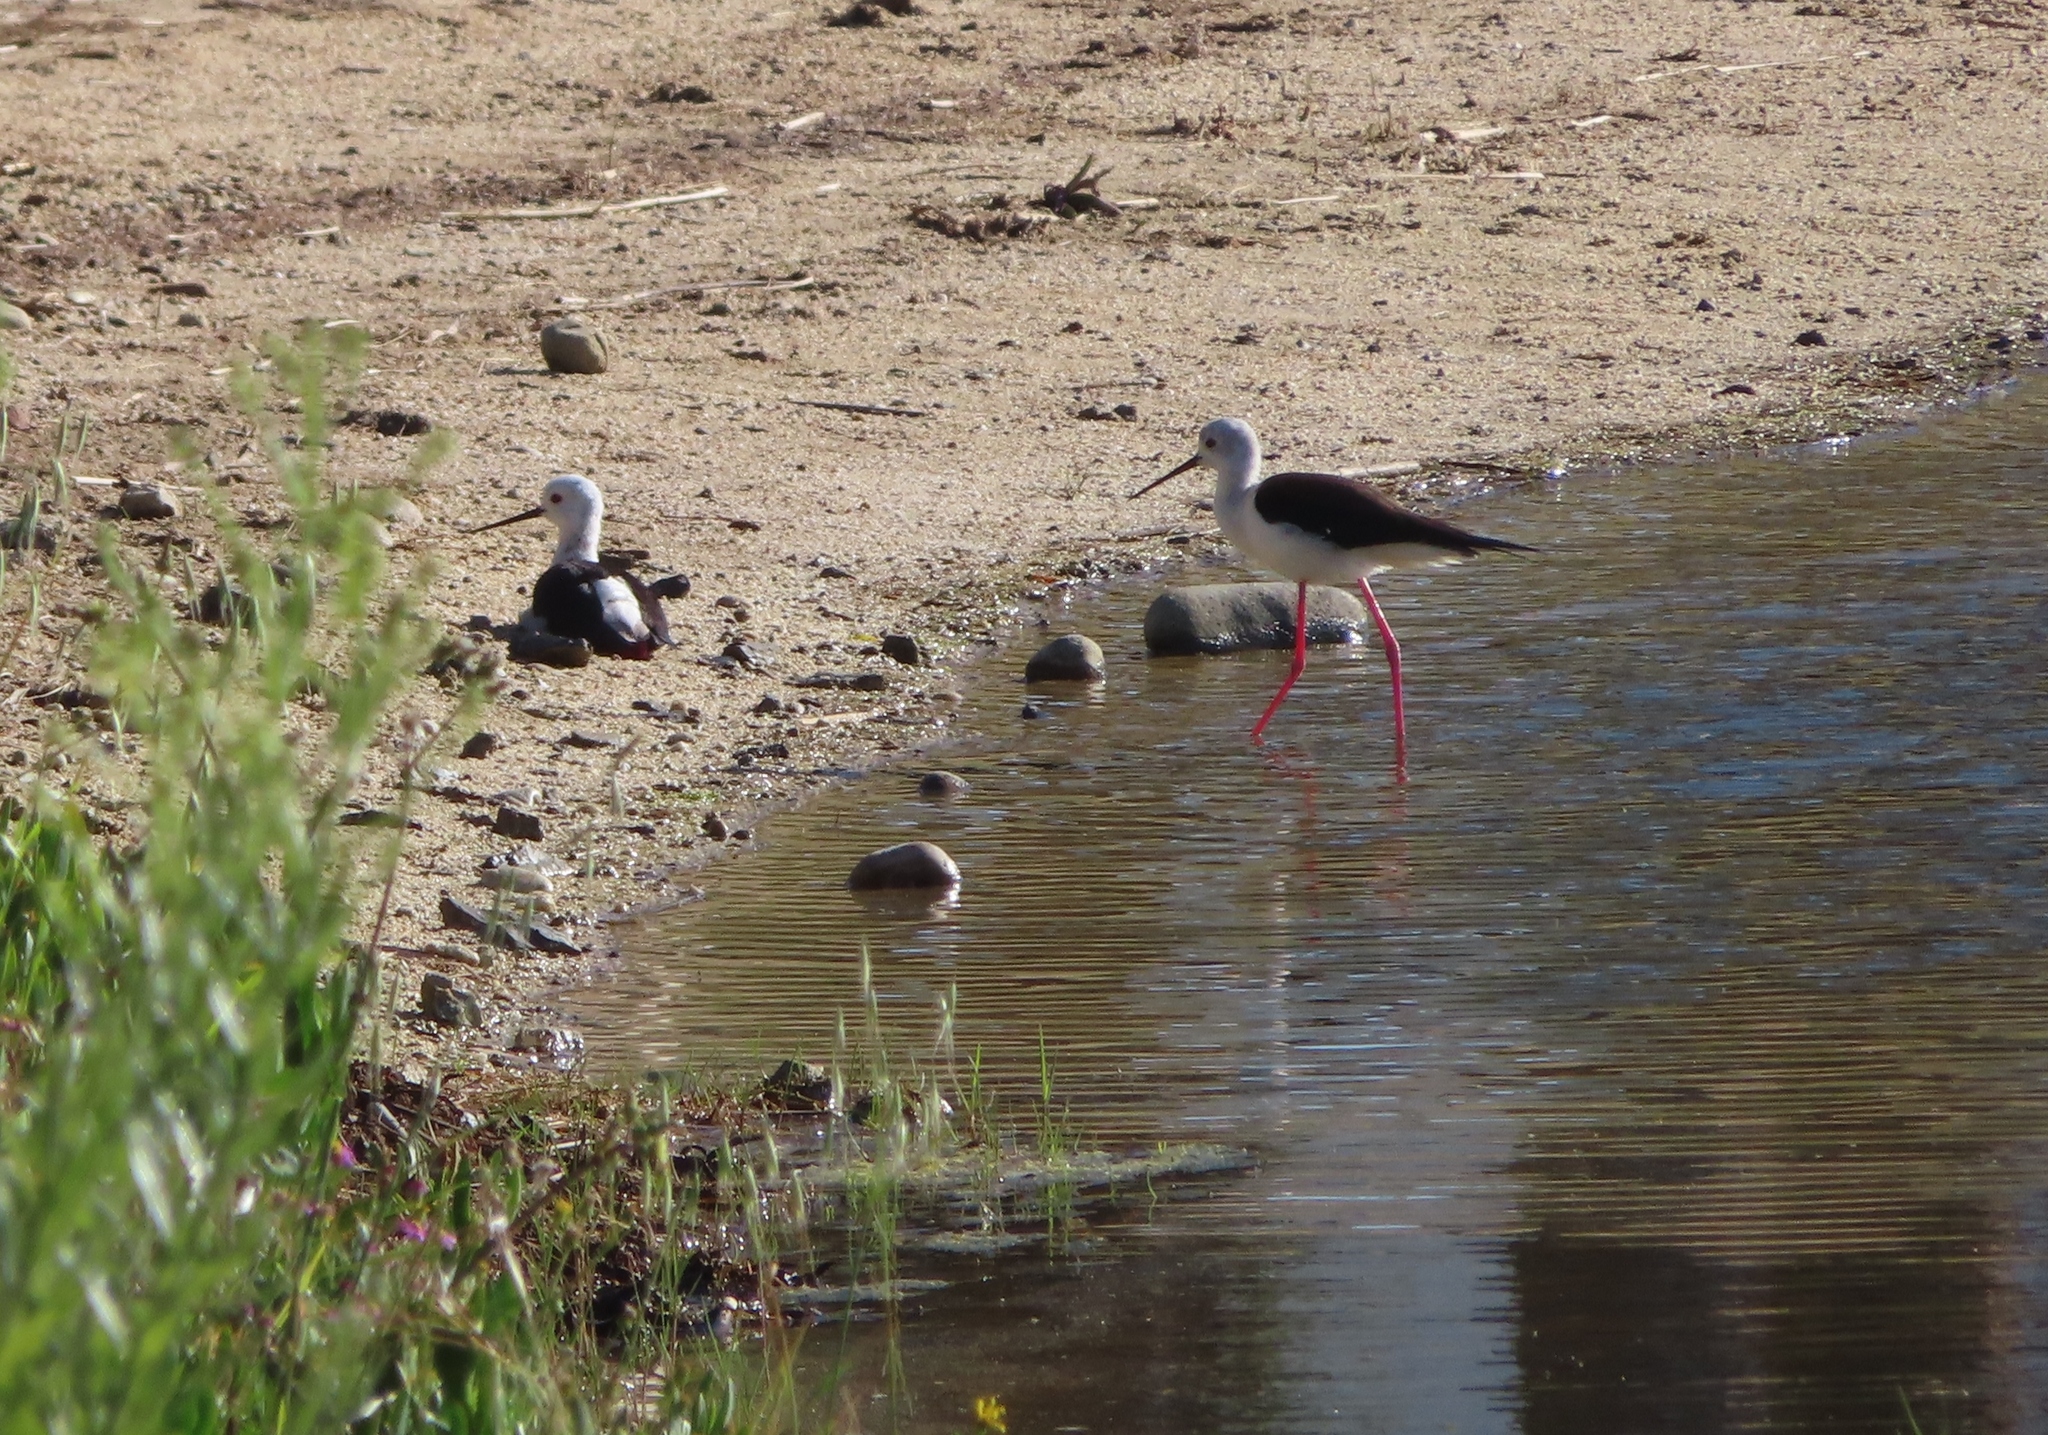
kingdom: Animalia
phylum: Chordata
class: Aves
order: Charadriiformes
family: Recurvirostridae
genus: Himantopus
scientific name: Himantopus himantopus
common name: Black-winged stilt
